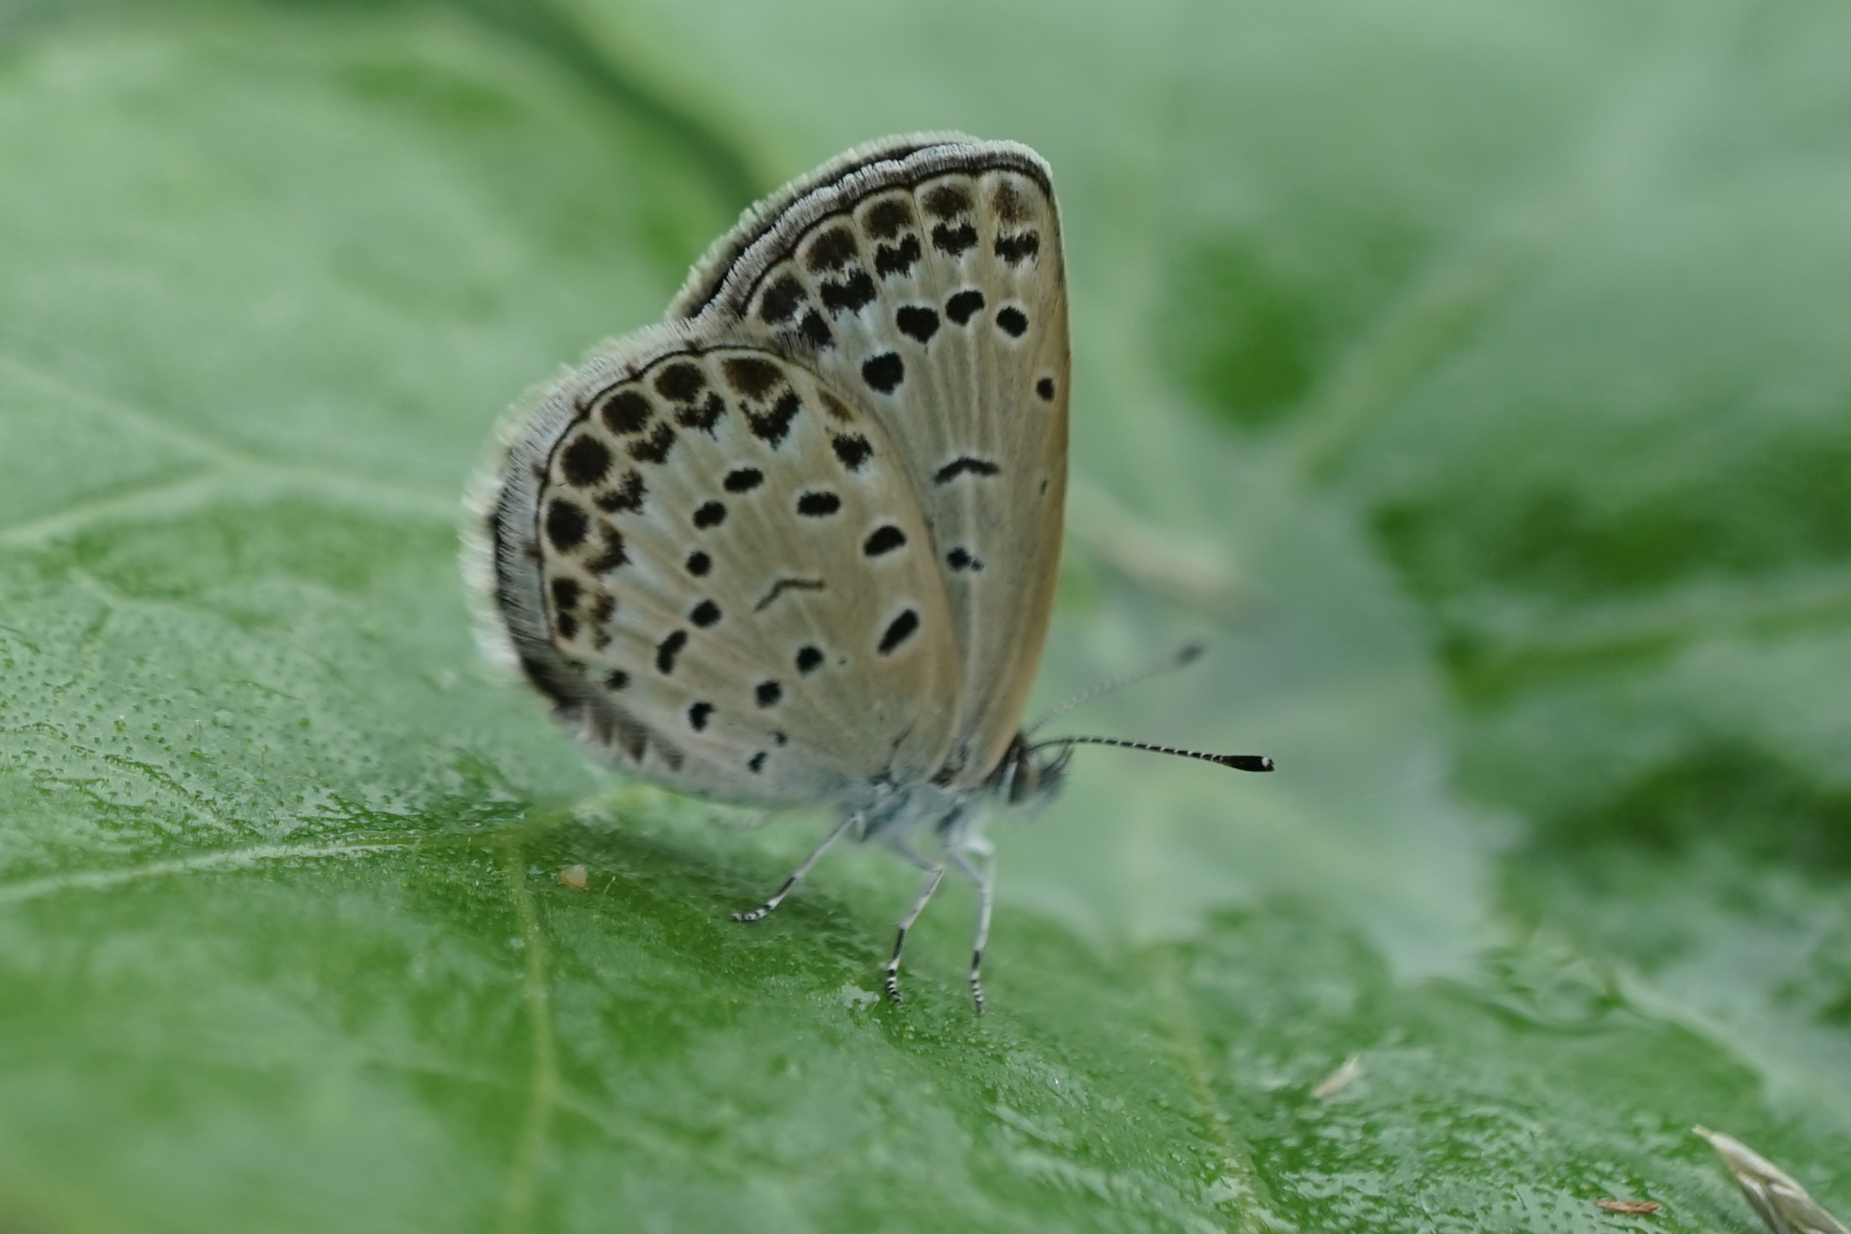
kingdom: Animalia
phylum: Arthropoda
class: Insecta
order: Lepidoptera
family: Lycaenidae
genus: Pseudozizeeria
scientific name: Pseudozizeeria maha
